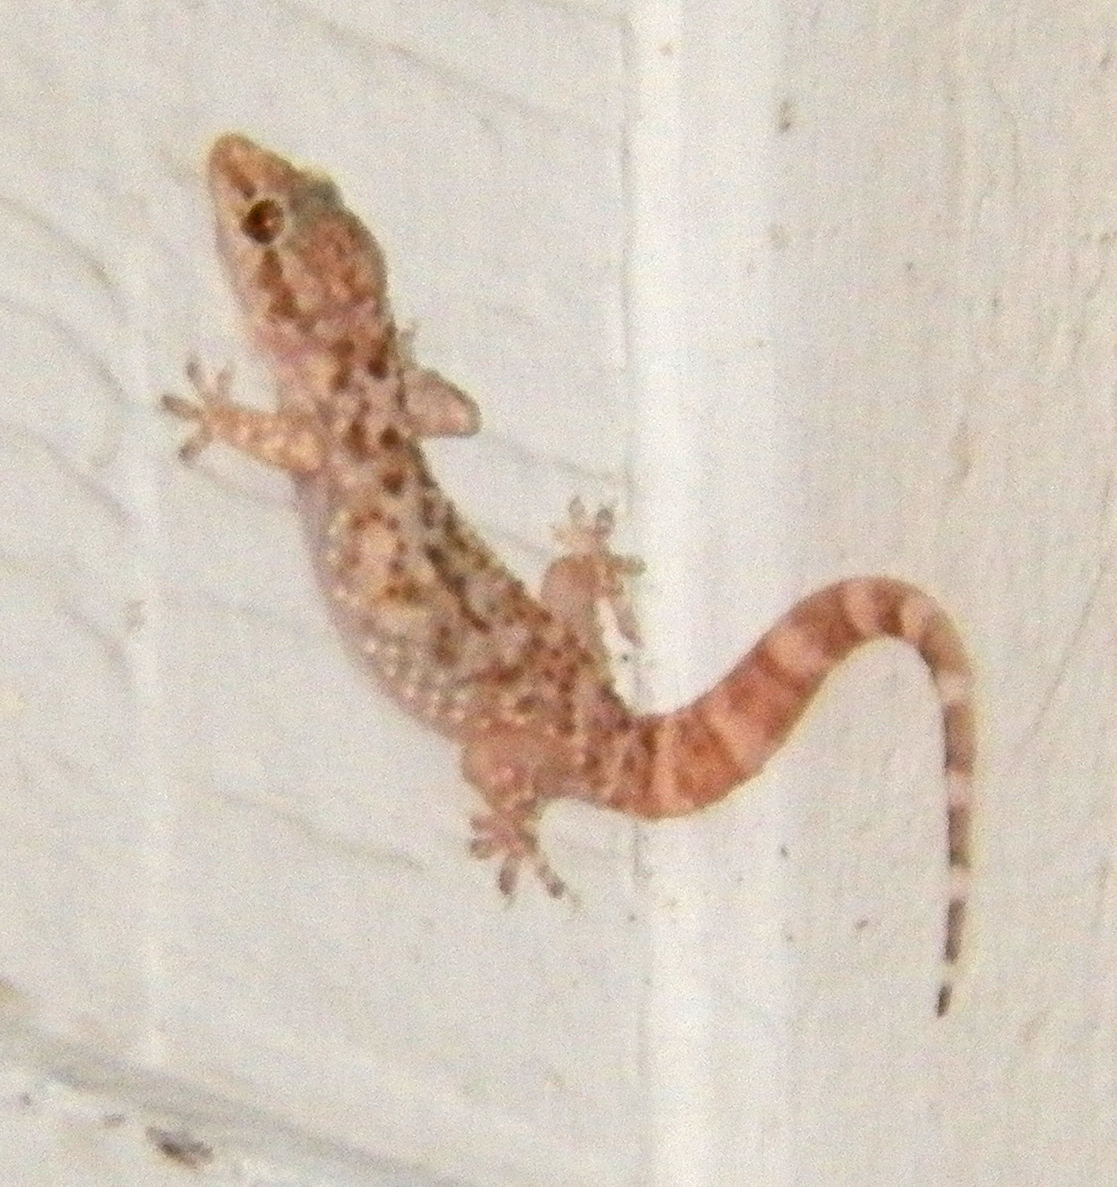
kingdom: Animalia
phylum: Chordata
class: Squamata
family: Gekkonidae
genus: Hemidactylus
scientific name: Hemidactylus turcicus
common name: Turkish gecko
